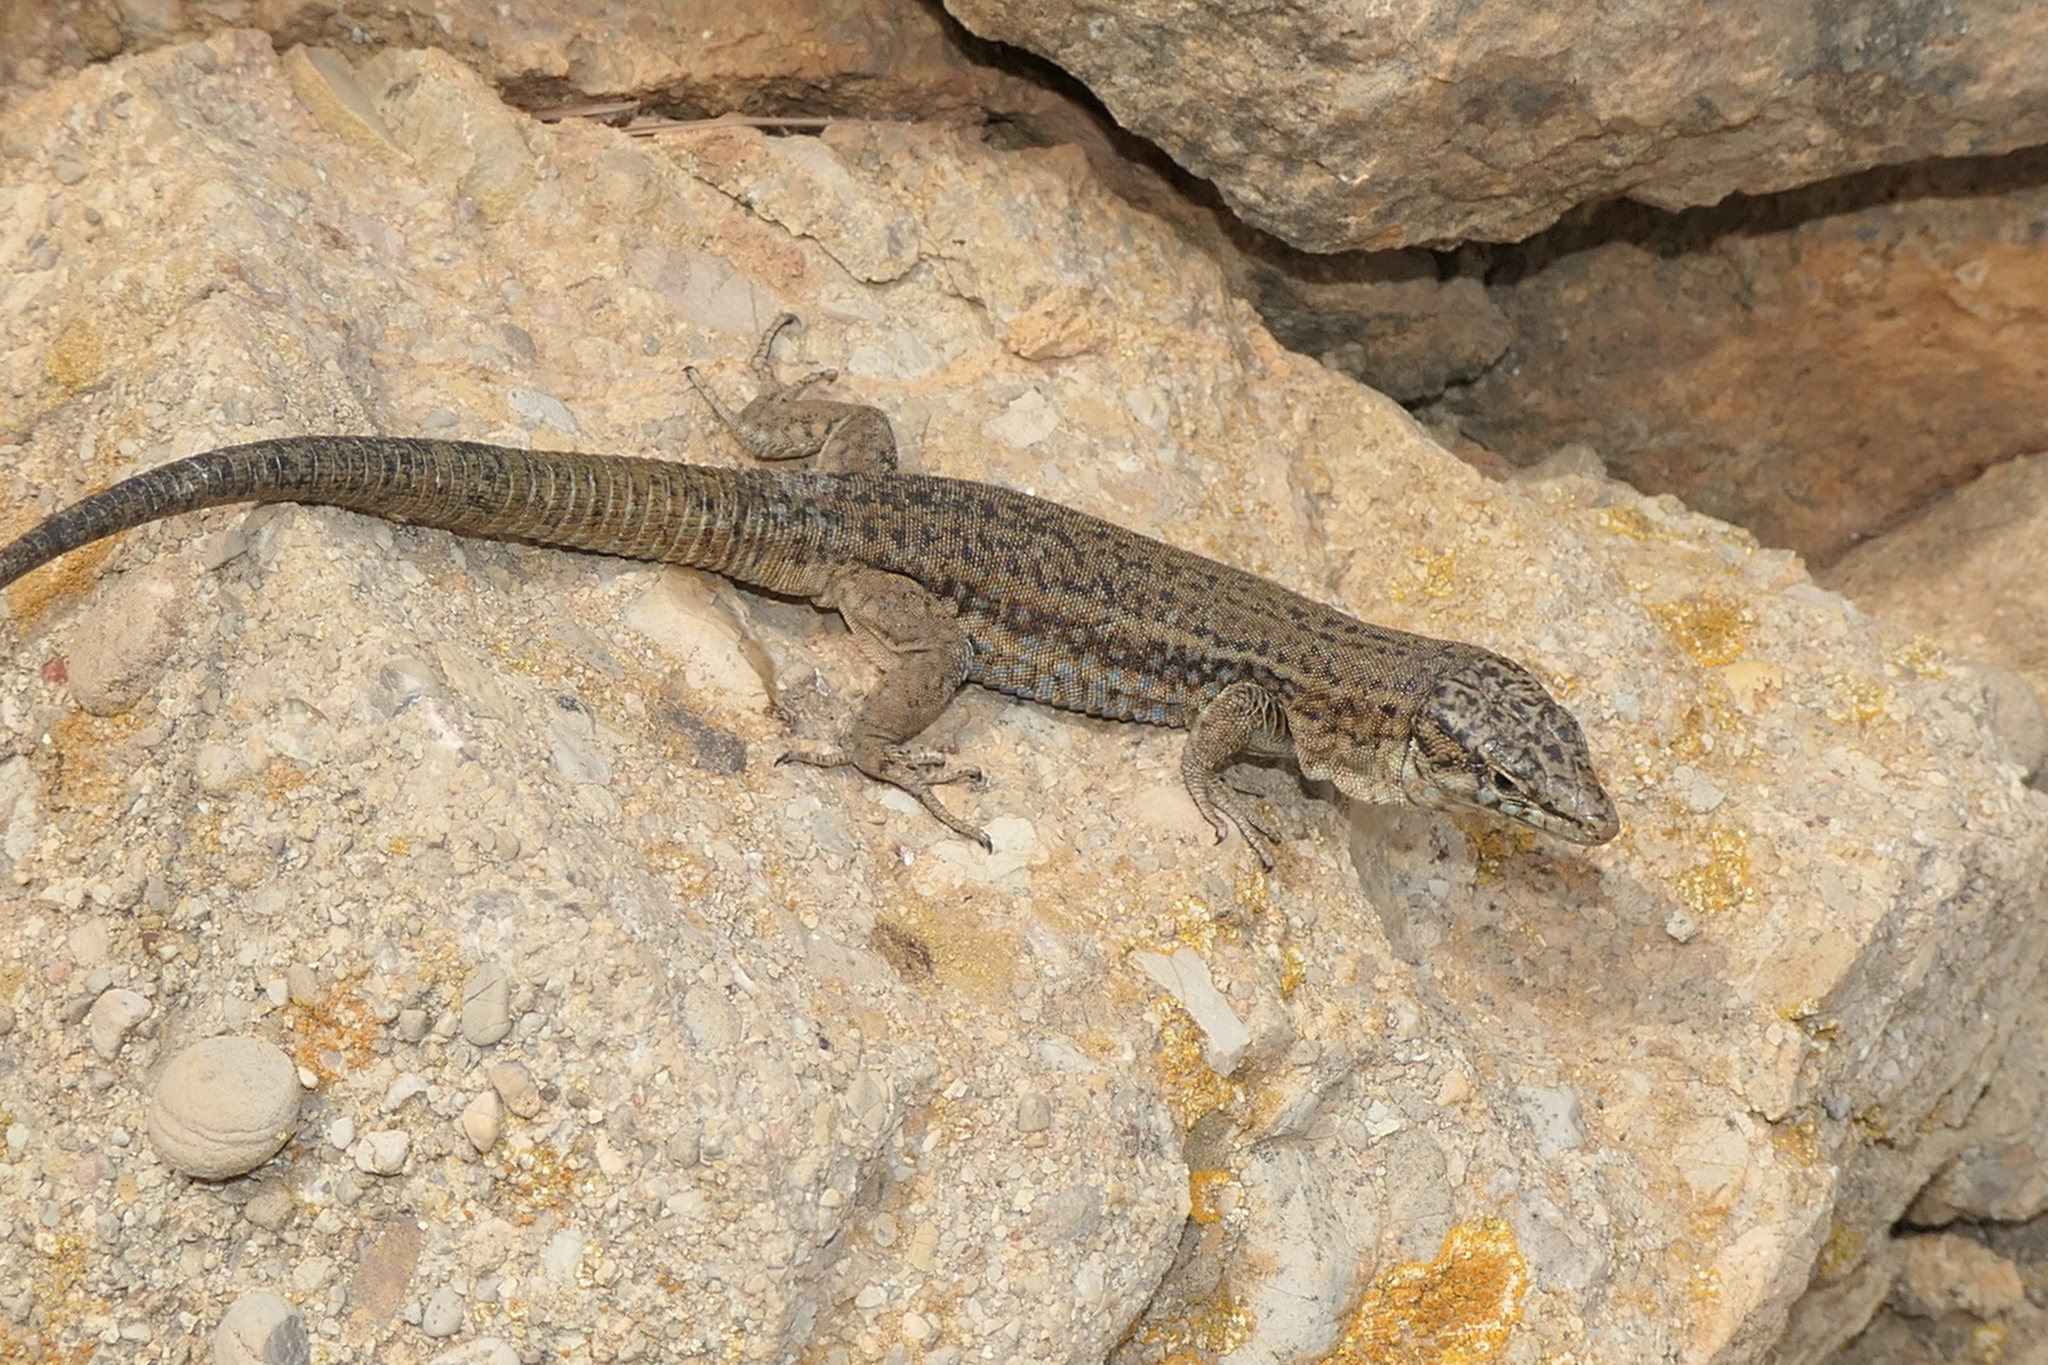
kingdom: Animalia
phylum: Chordata
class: Squamata
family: Lacertidae
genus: Podarcis
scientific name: Podarcis lilfordi
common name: Belearic lizard
